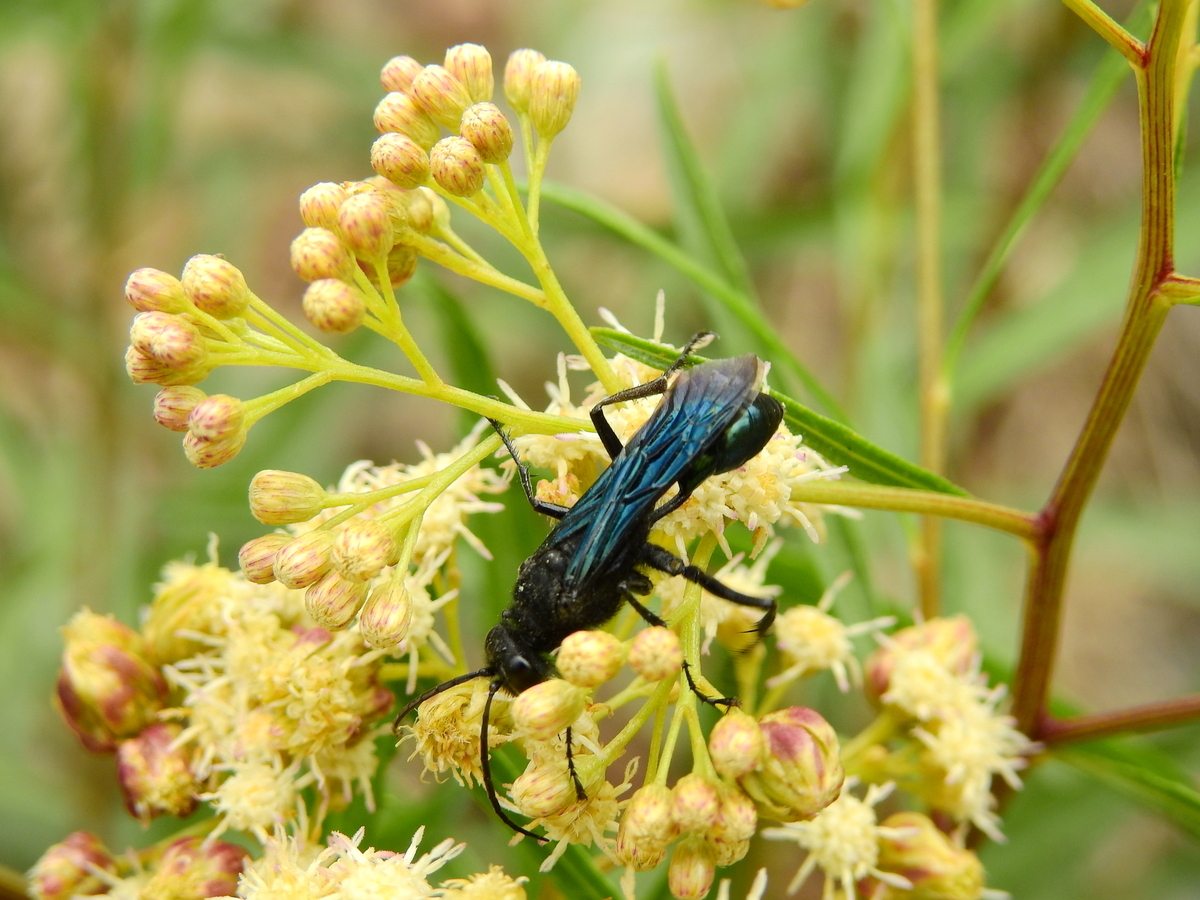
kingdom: Animalia
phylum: Arthropoda
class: Insecta
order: Hymenoptera
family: Sphecidae
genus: Stangeella
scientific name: Stangeella cyaniventris
